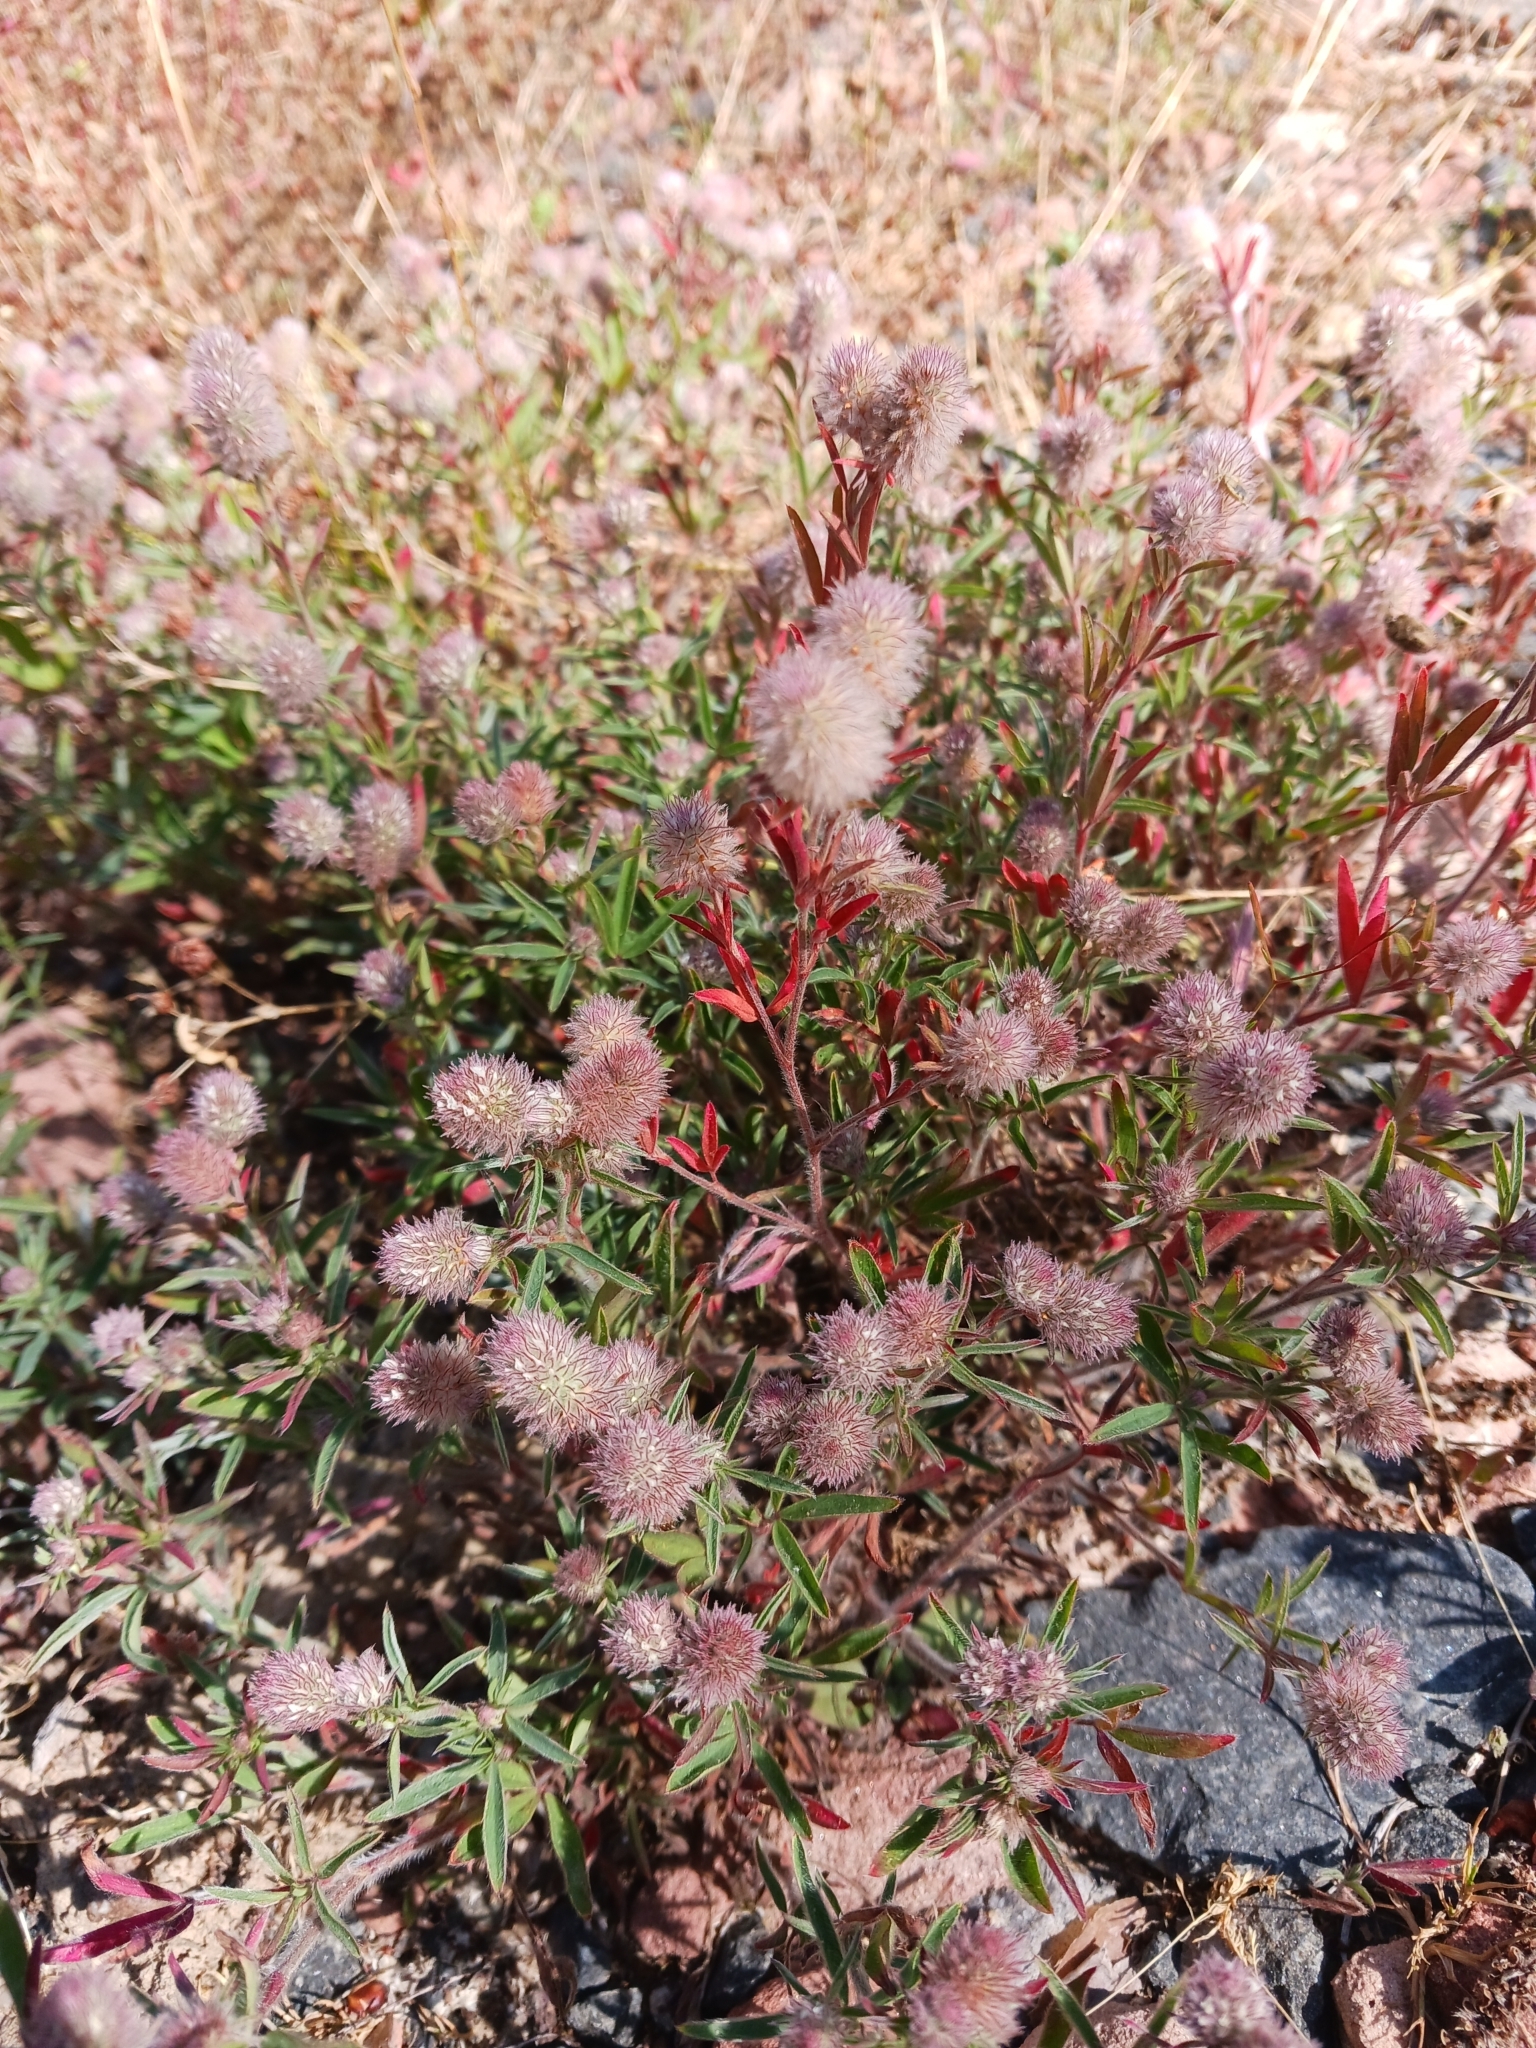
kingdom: Plantae
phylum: Tracheophyta
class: Magnoliopsida
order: Fabales
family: Fabaceae
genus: Trifolium
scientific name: Trifolium arvense
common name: Hare's-foot clover
